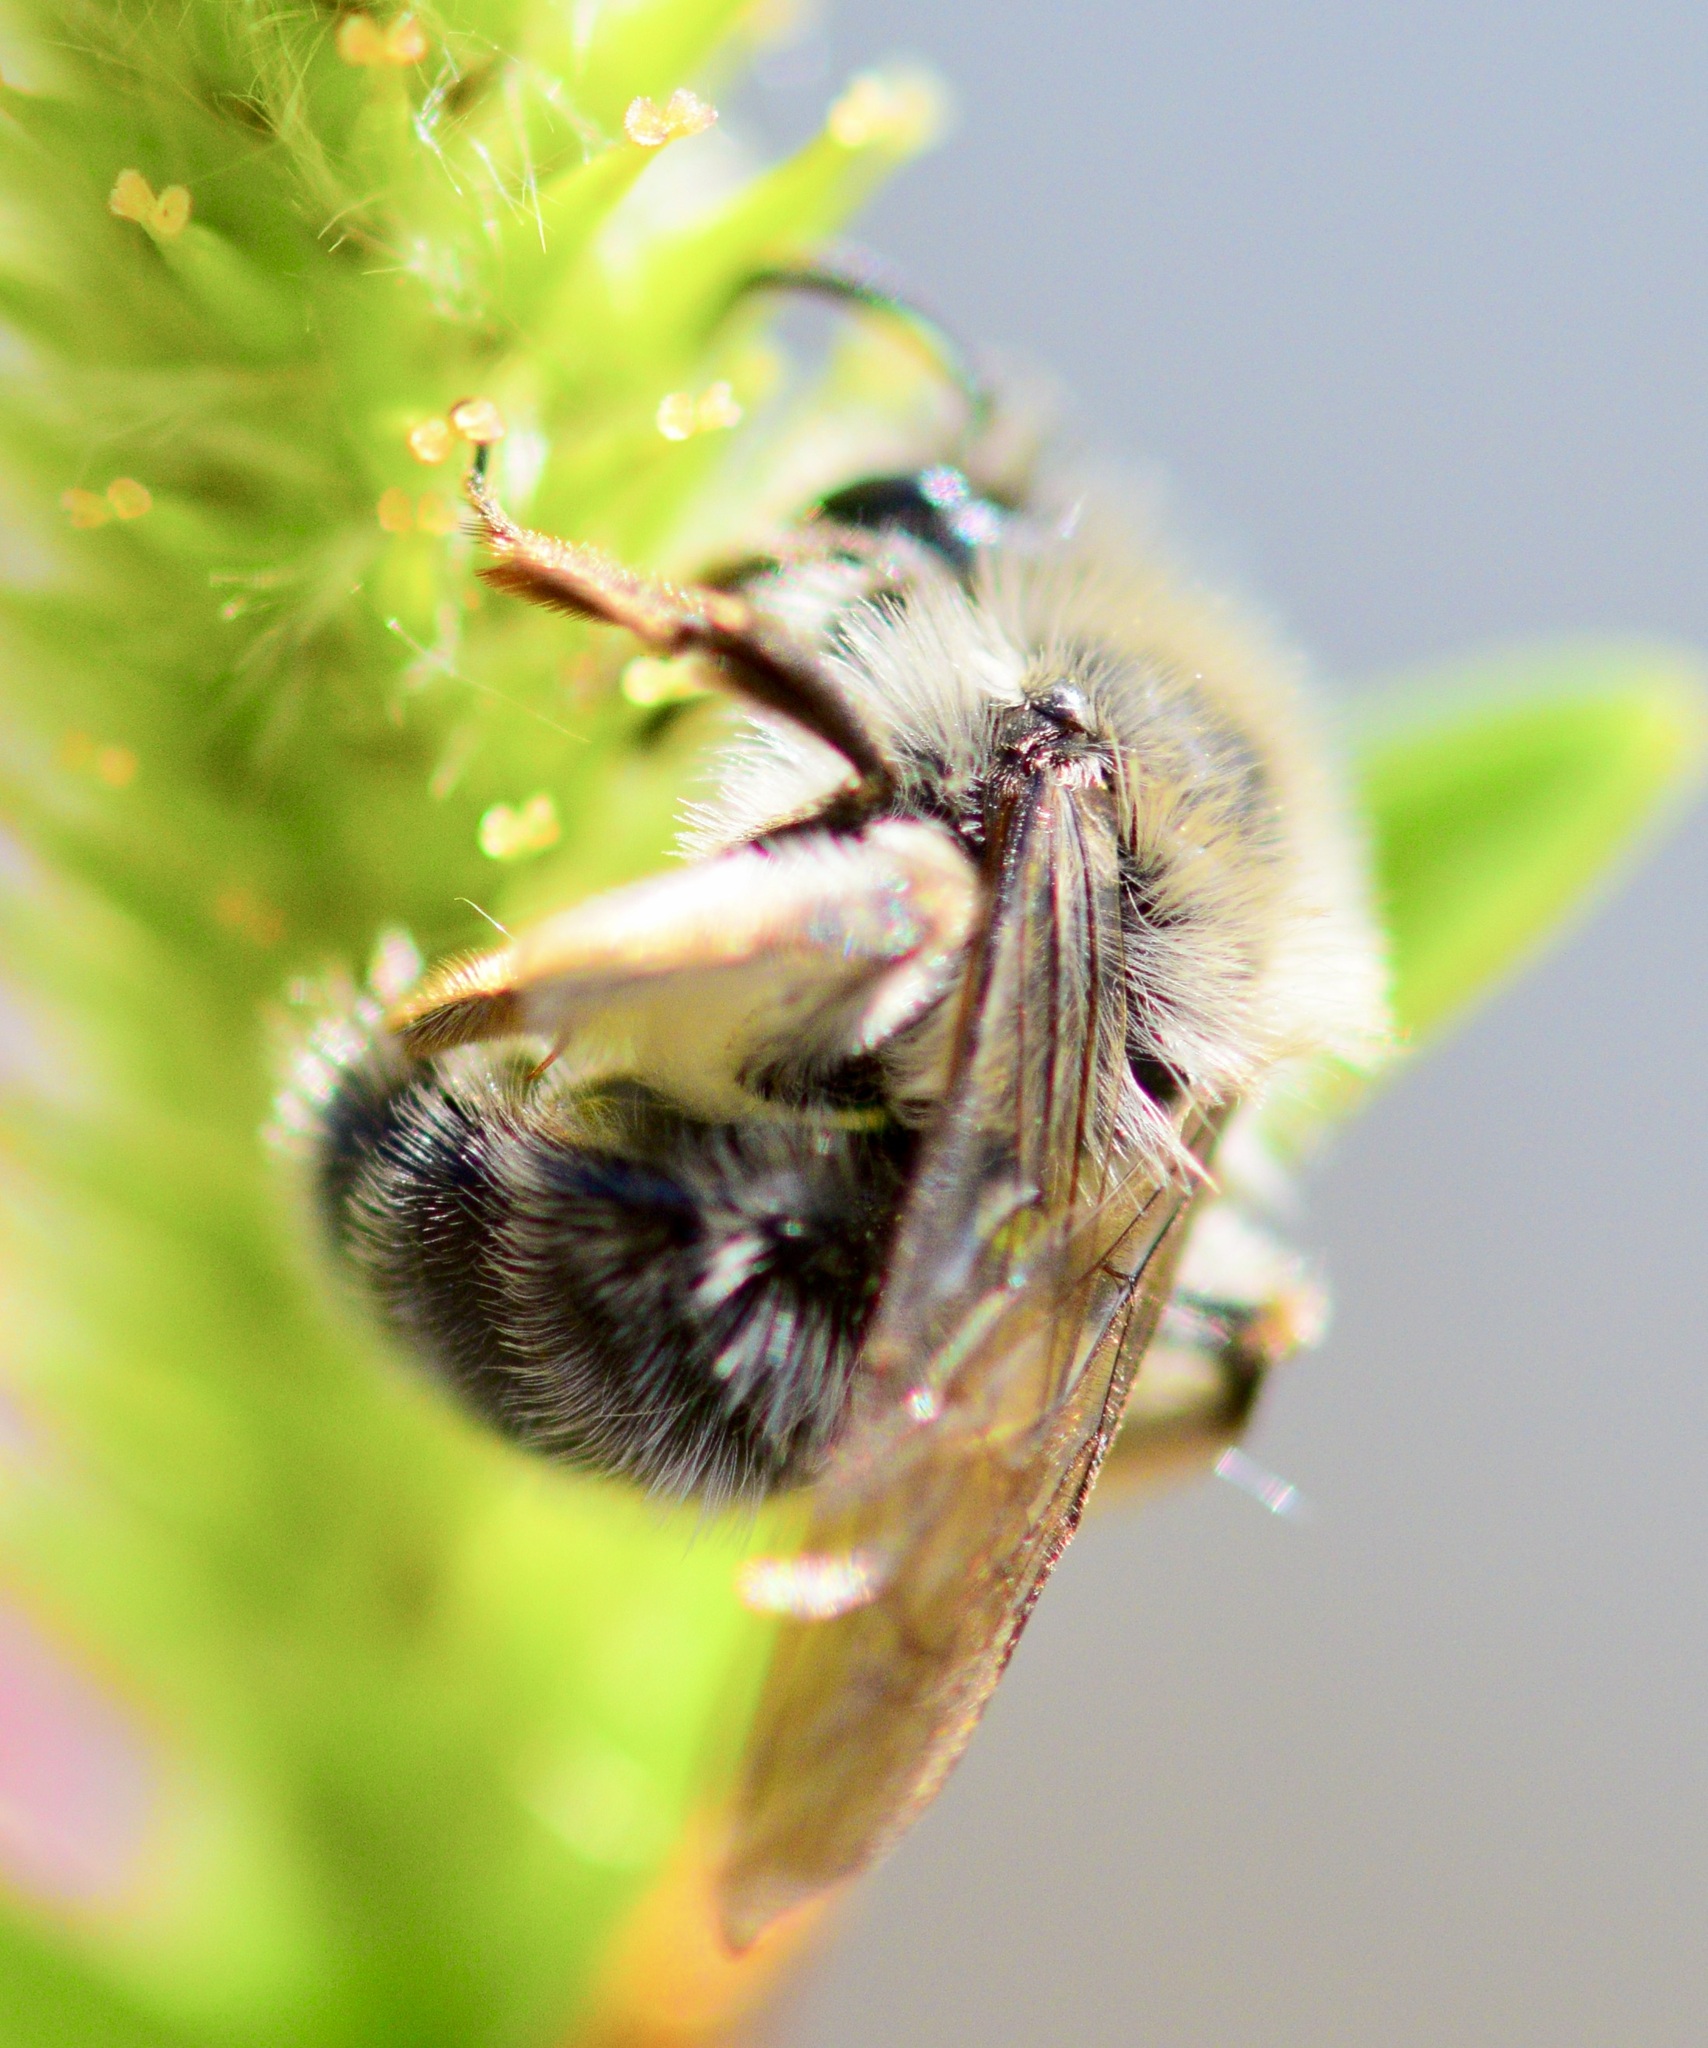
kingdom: Animalia
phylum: Arthropoda
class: Insecta
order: Hymenoptera
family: Andrenidae
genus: Andrena
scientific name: Andrena frigida
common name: Frigid mining bee
